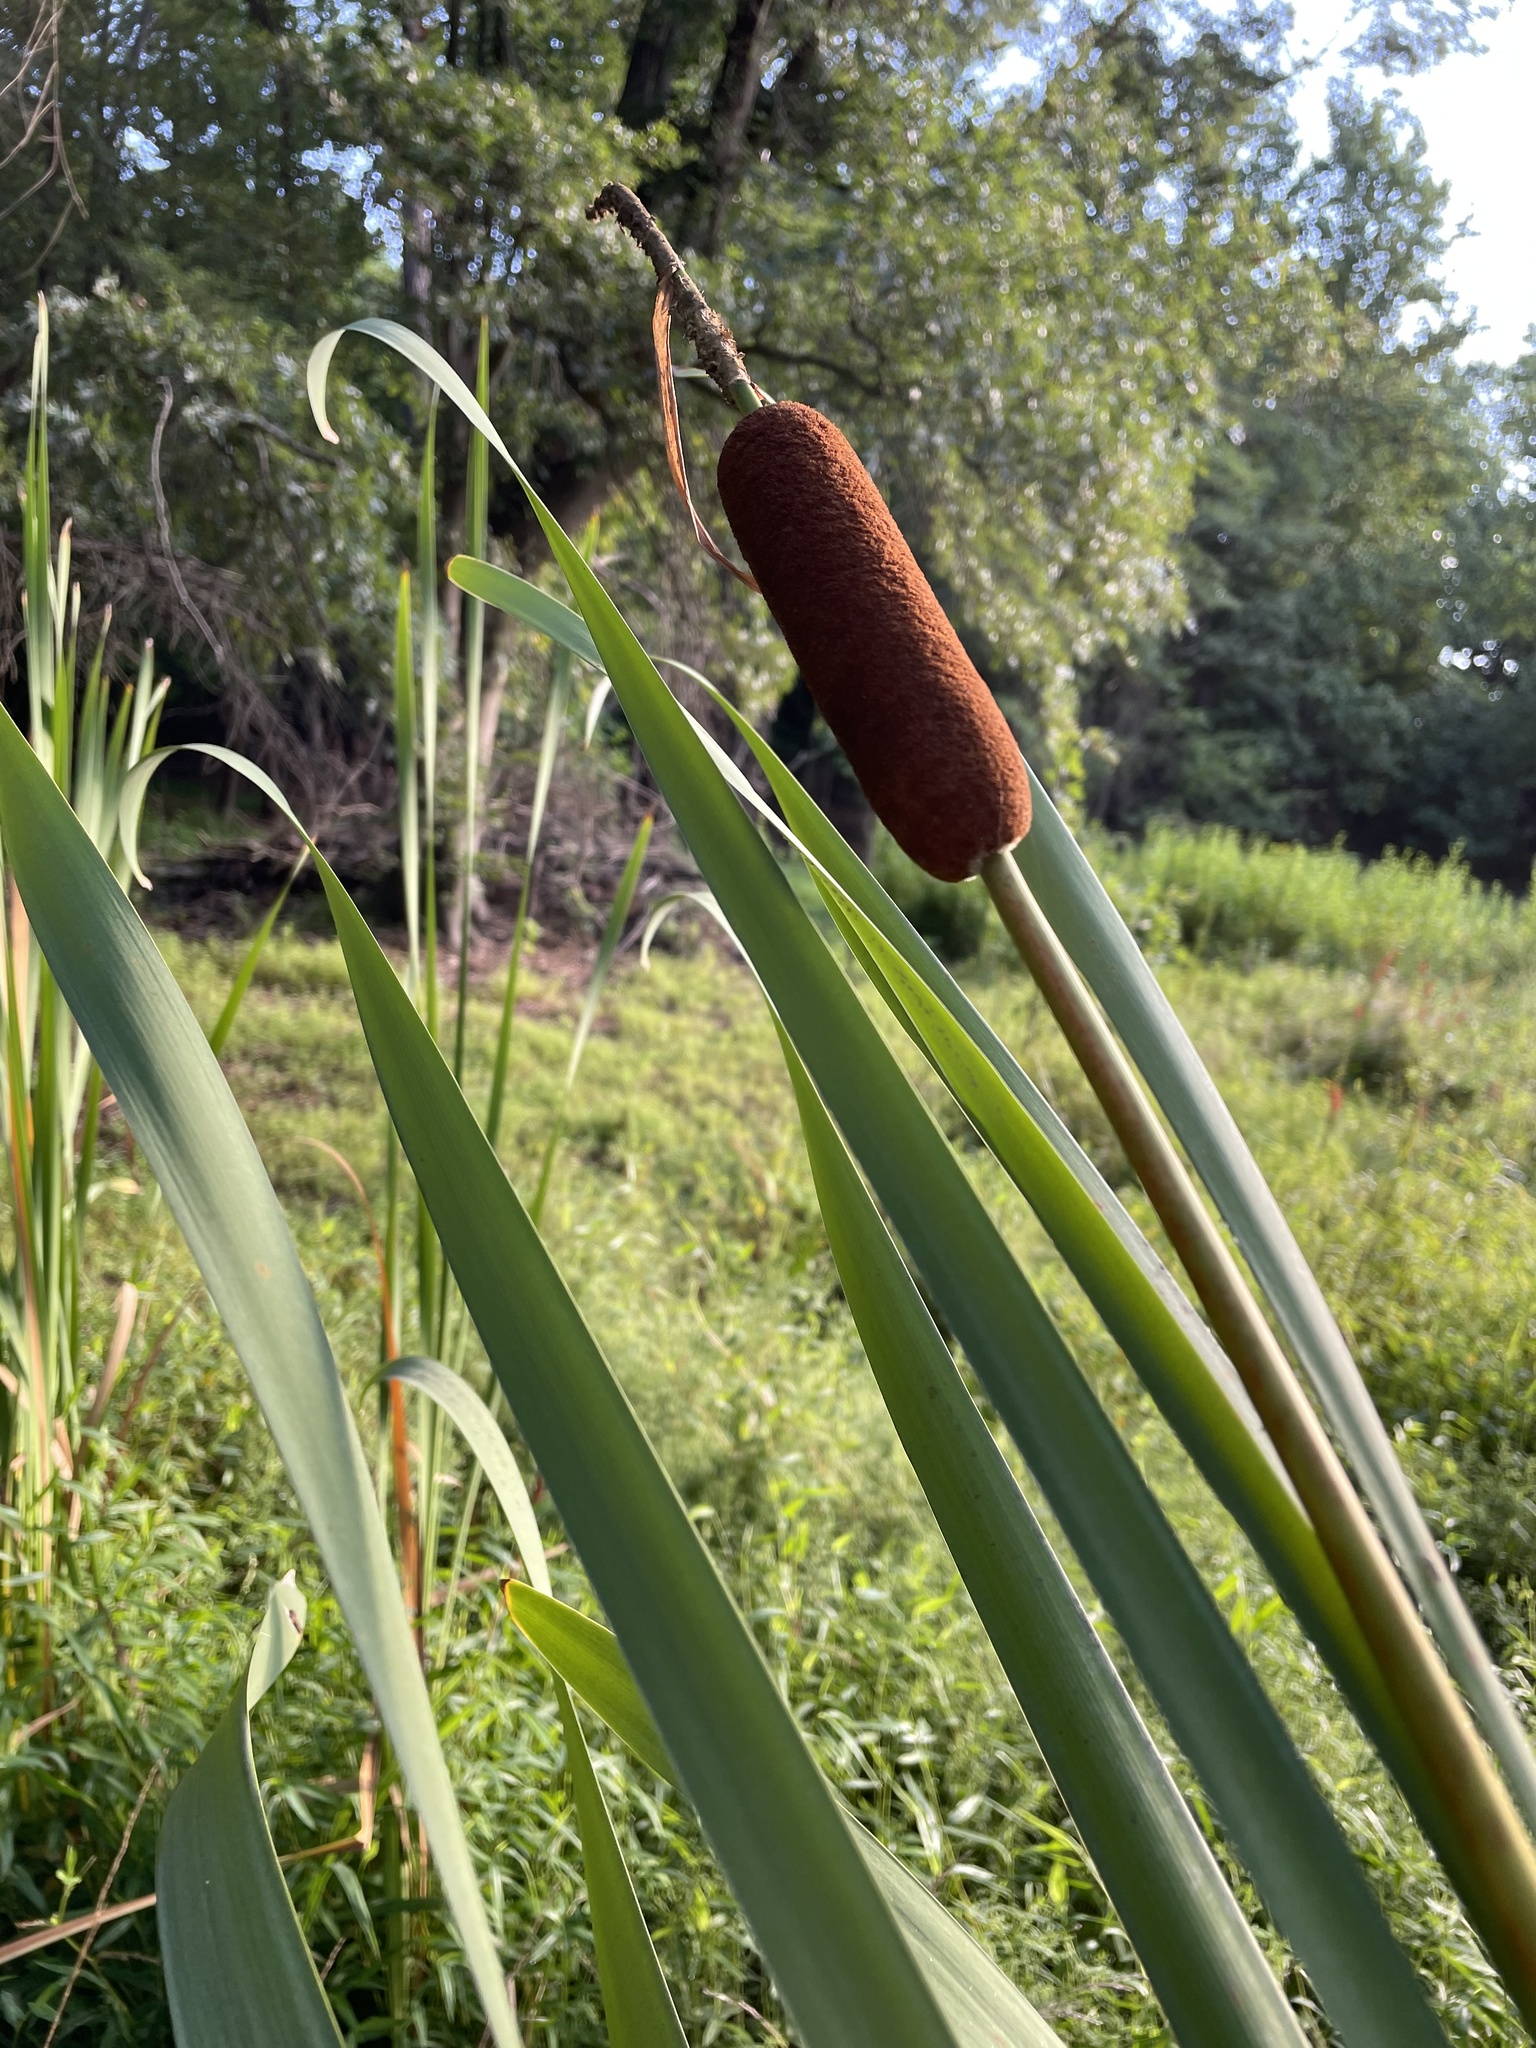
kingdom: Plantae
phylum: Tracheophyta
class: Liliopsida
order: Poales
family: Typhaceae
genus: Typha
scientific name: Typha latifolia
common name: Broadleaf cattail
